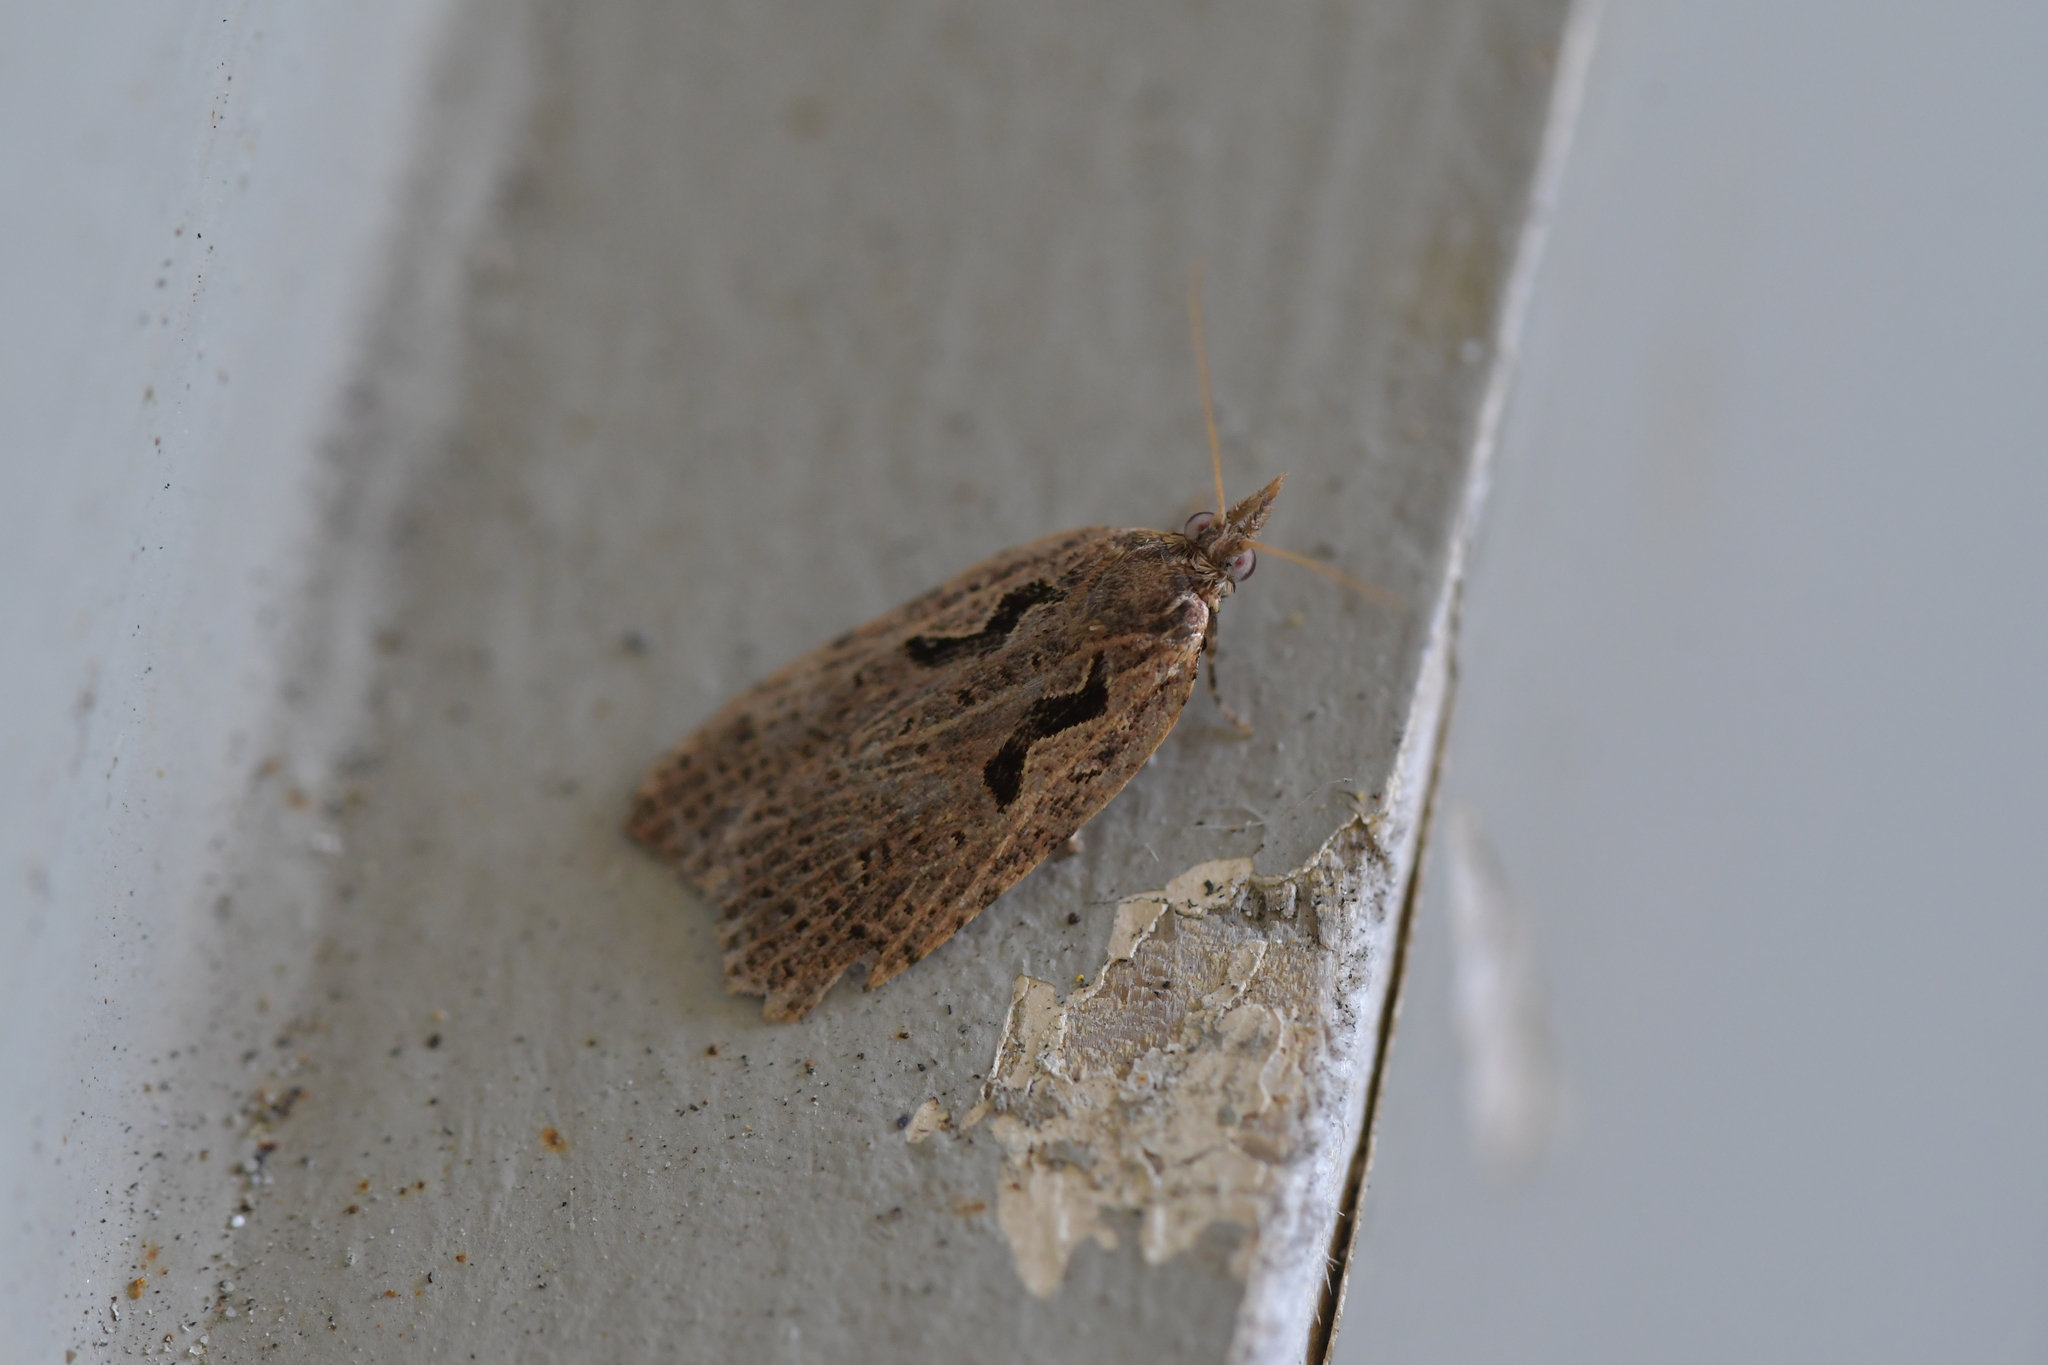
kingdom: Animalia
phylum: Arthropoda
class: Insecta
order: Lepidoptera
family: Tortricidae
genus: Cnephasia
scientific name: Cnephasia jactatana
